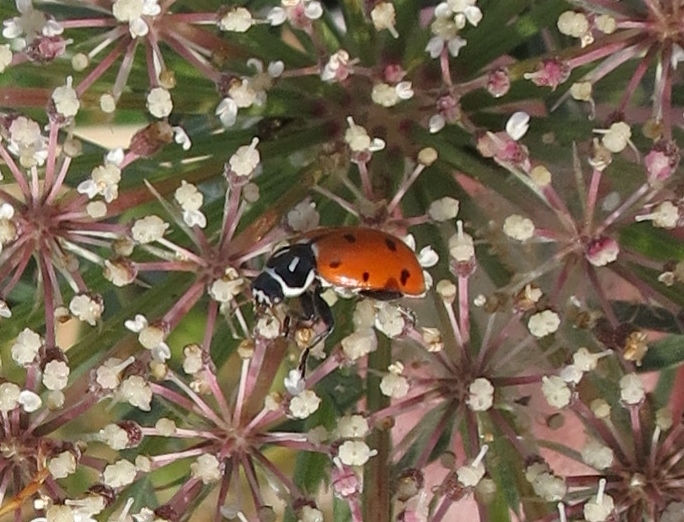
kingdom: Animalia
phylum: Arthropoda
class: Insecta
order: Coleoptera
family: Coccinellidae
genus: Hippodamia
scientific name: Hippodamia convergens
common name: Convergent lady beetle
